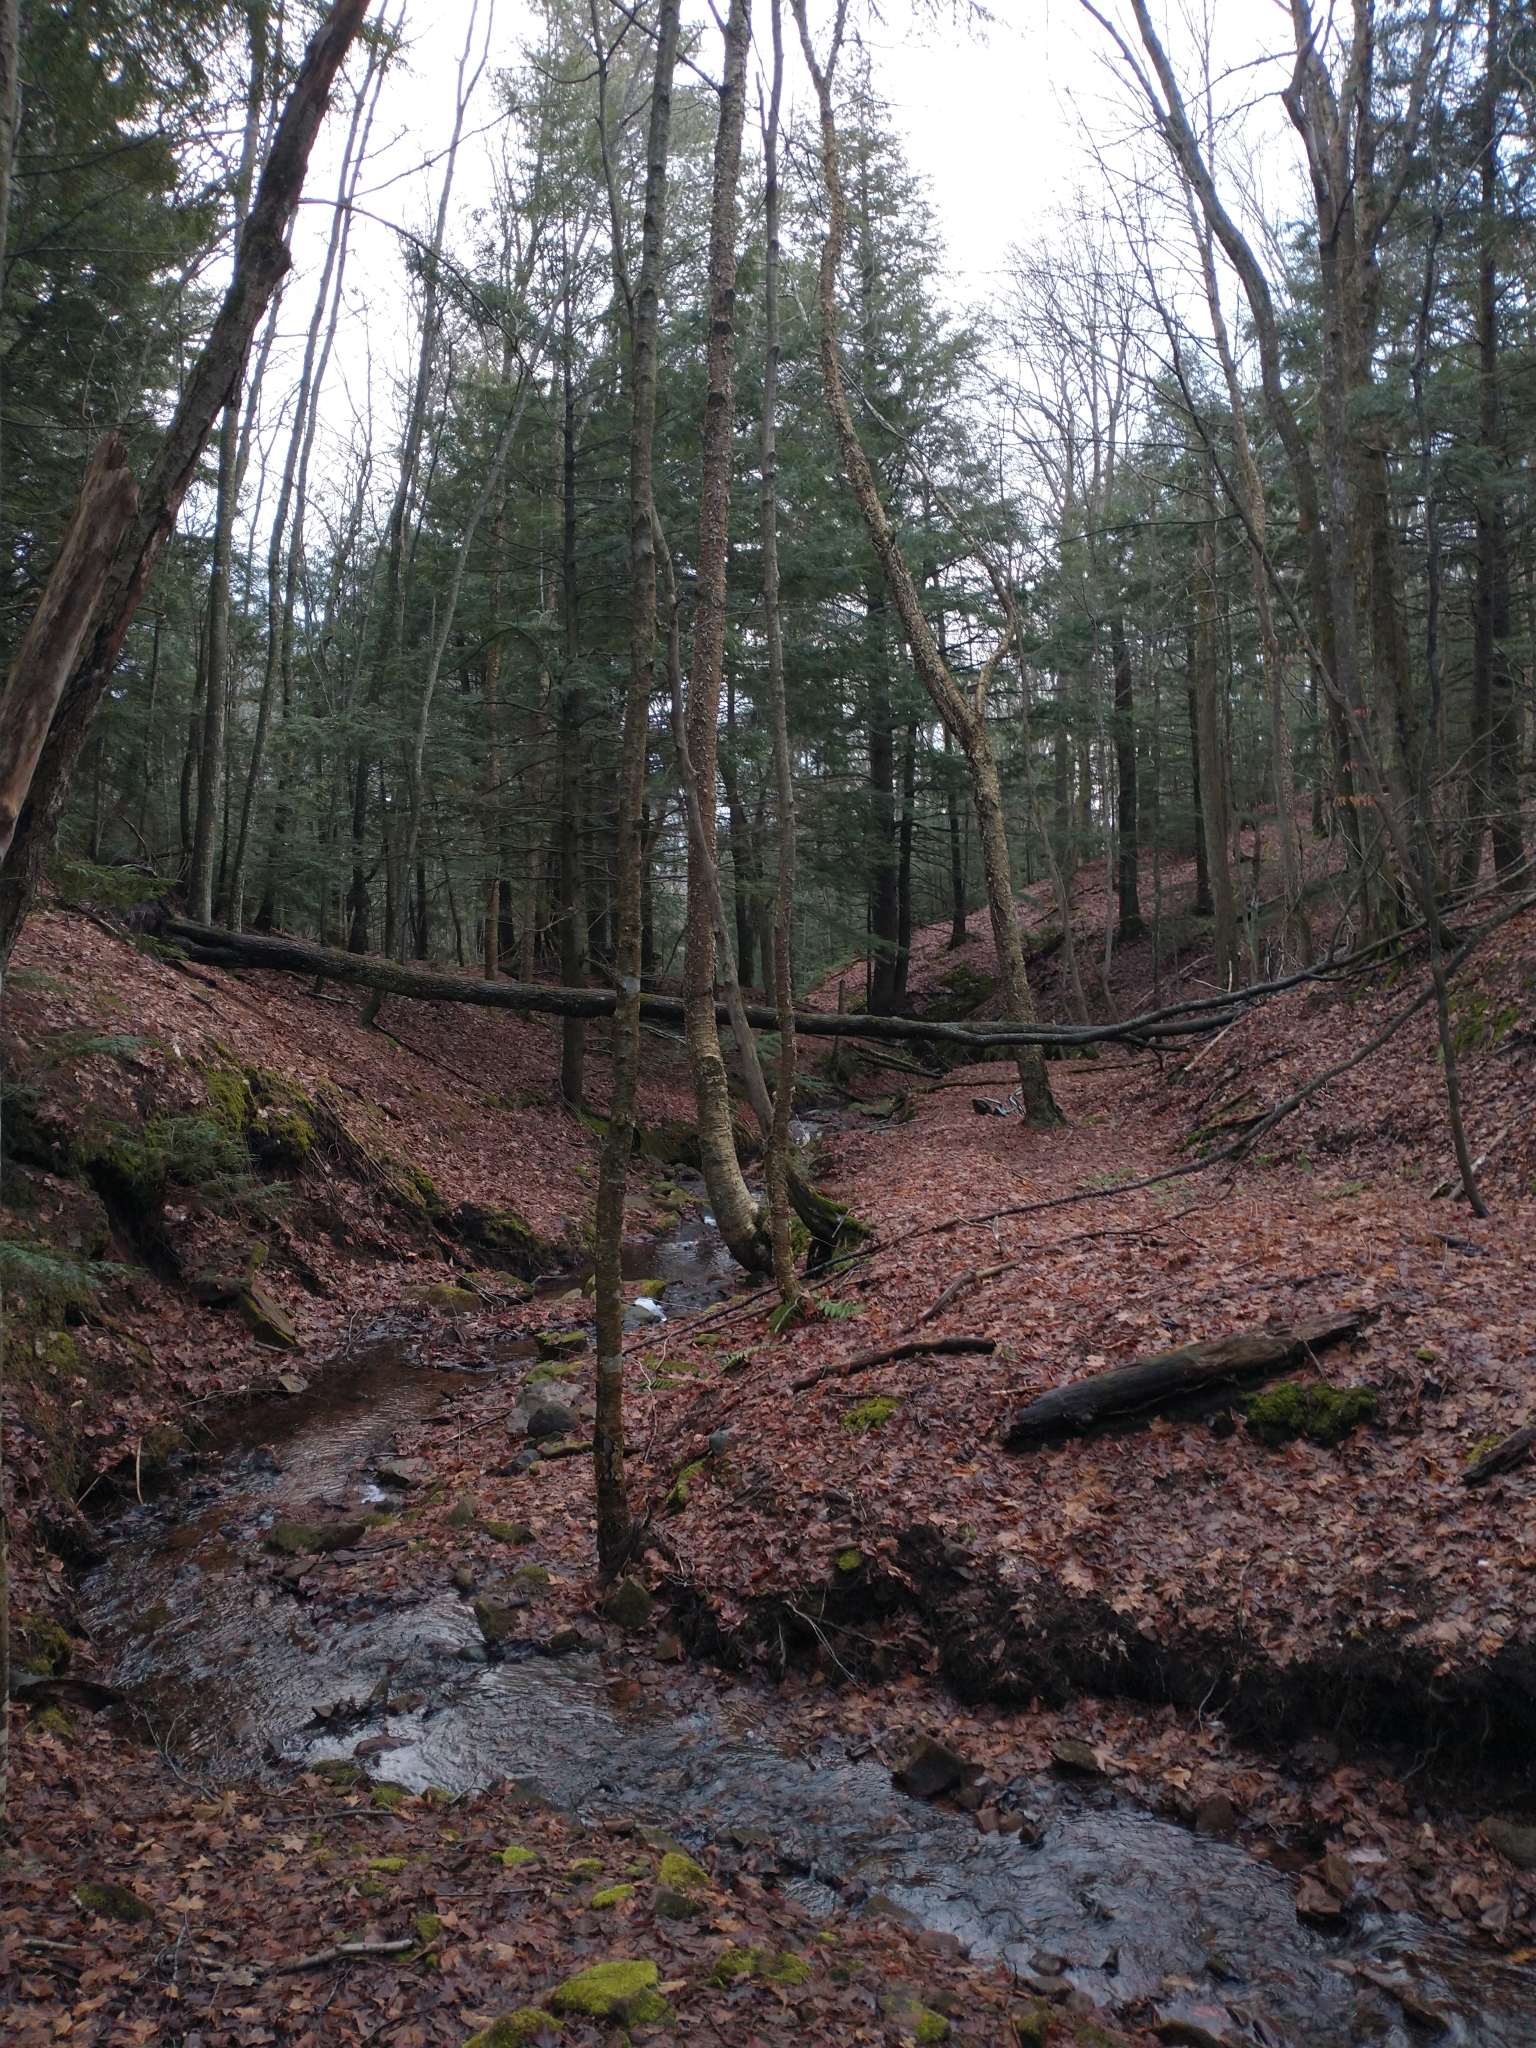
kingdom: Plantae
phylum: Tracheophyta
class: Magnoliopsida
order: Fagales
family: Betulaceae
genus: Betula
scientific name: Betula alleghaniensis
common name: Yellow birch
